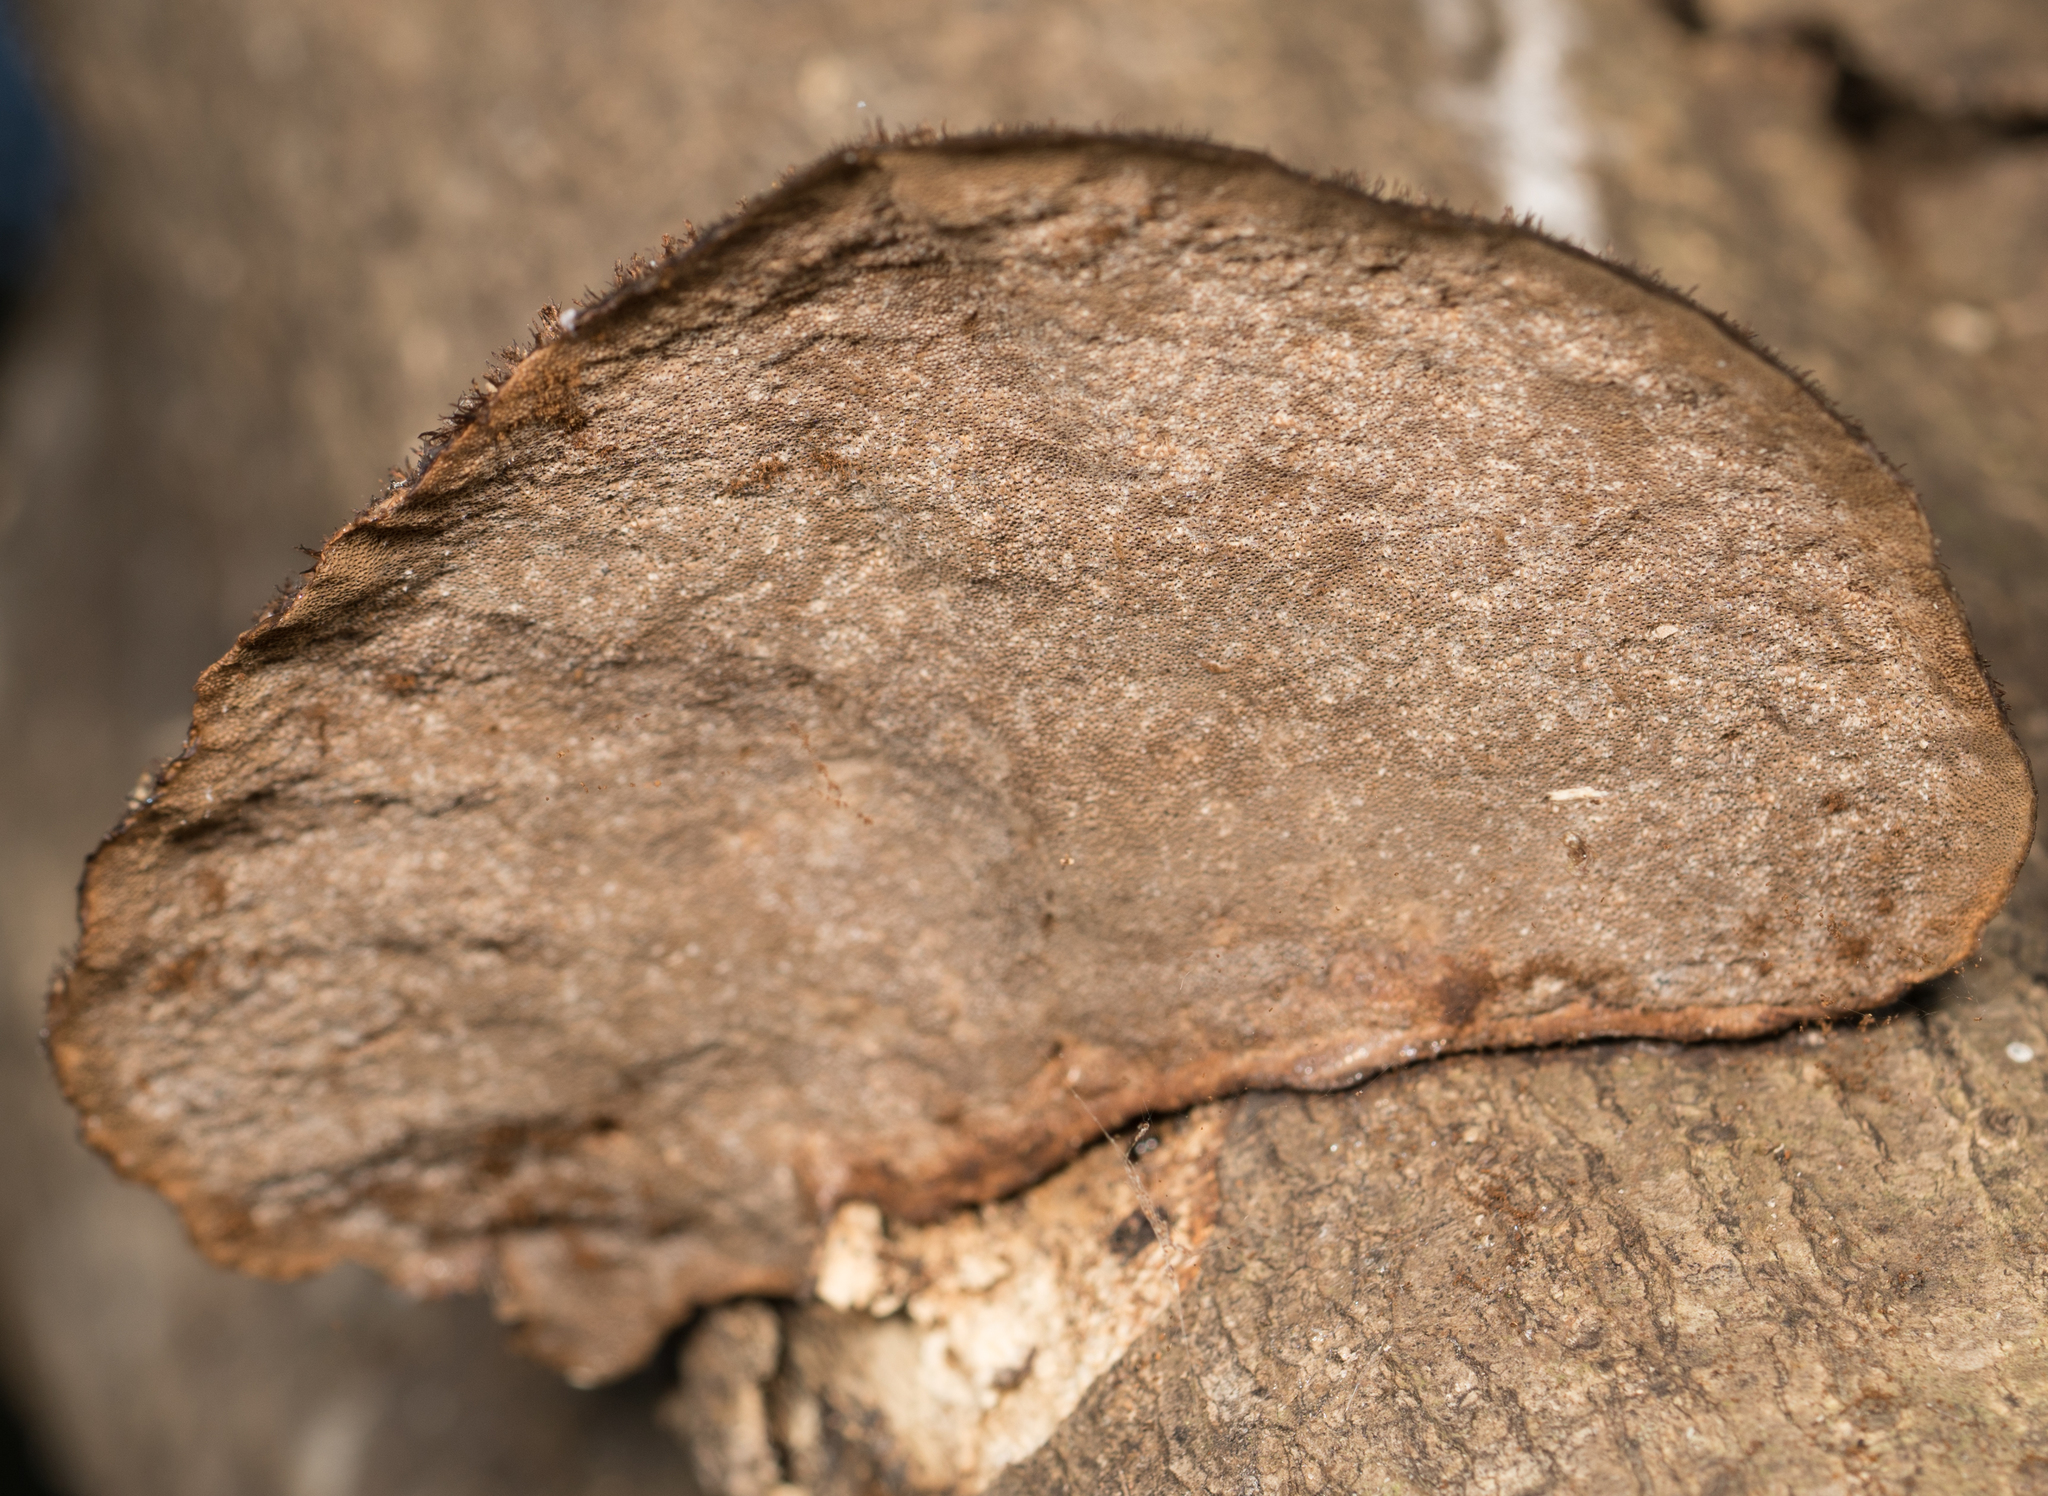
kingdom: Fungi
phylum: Basidiomycota
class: Agaricomycetes
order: Polyporales
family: Cerrenaceae
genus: Cerrena
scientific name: Cerrena hydnoides
